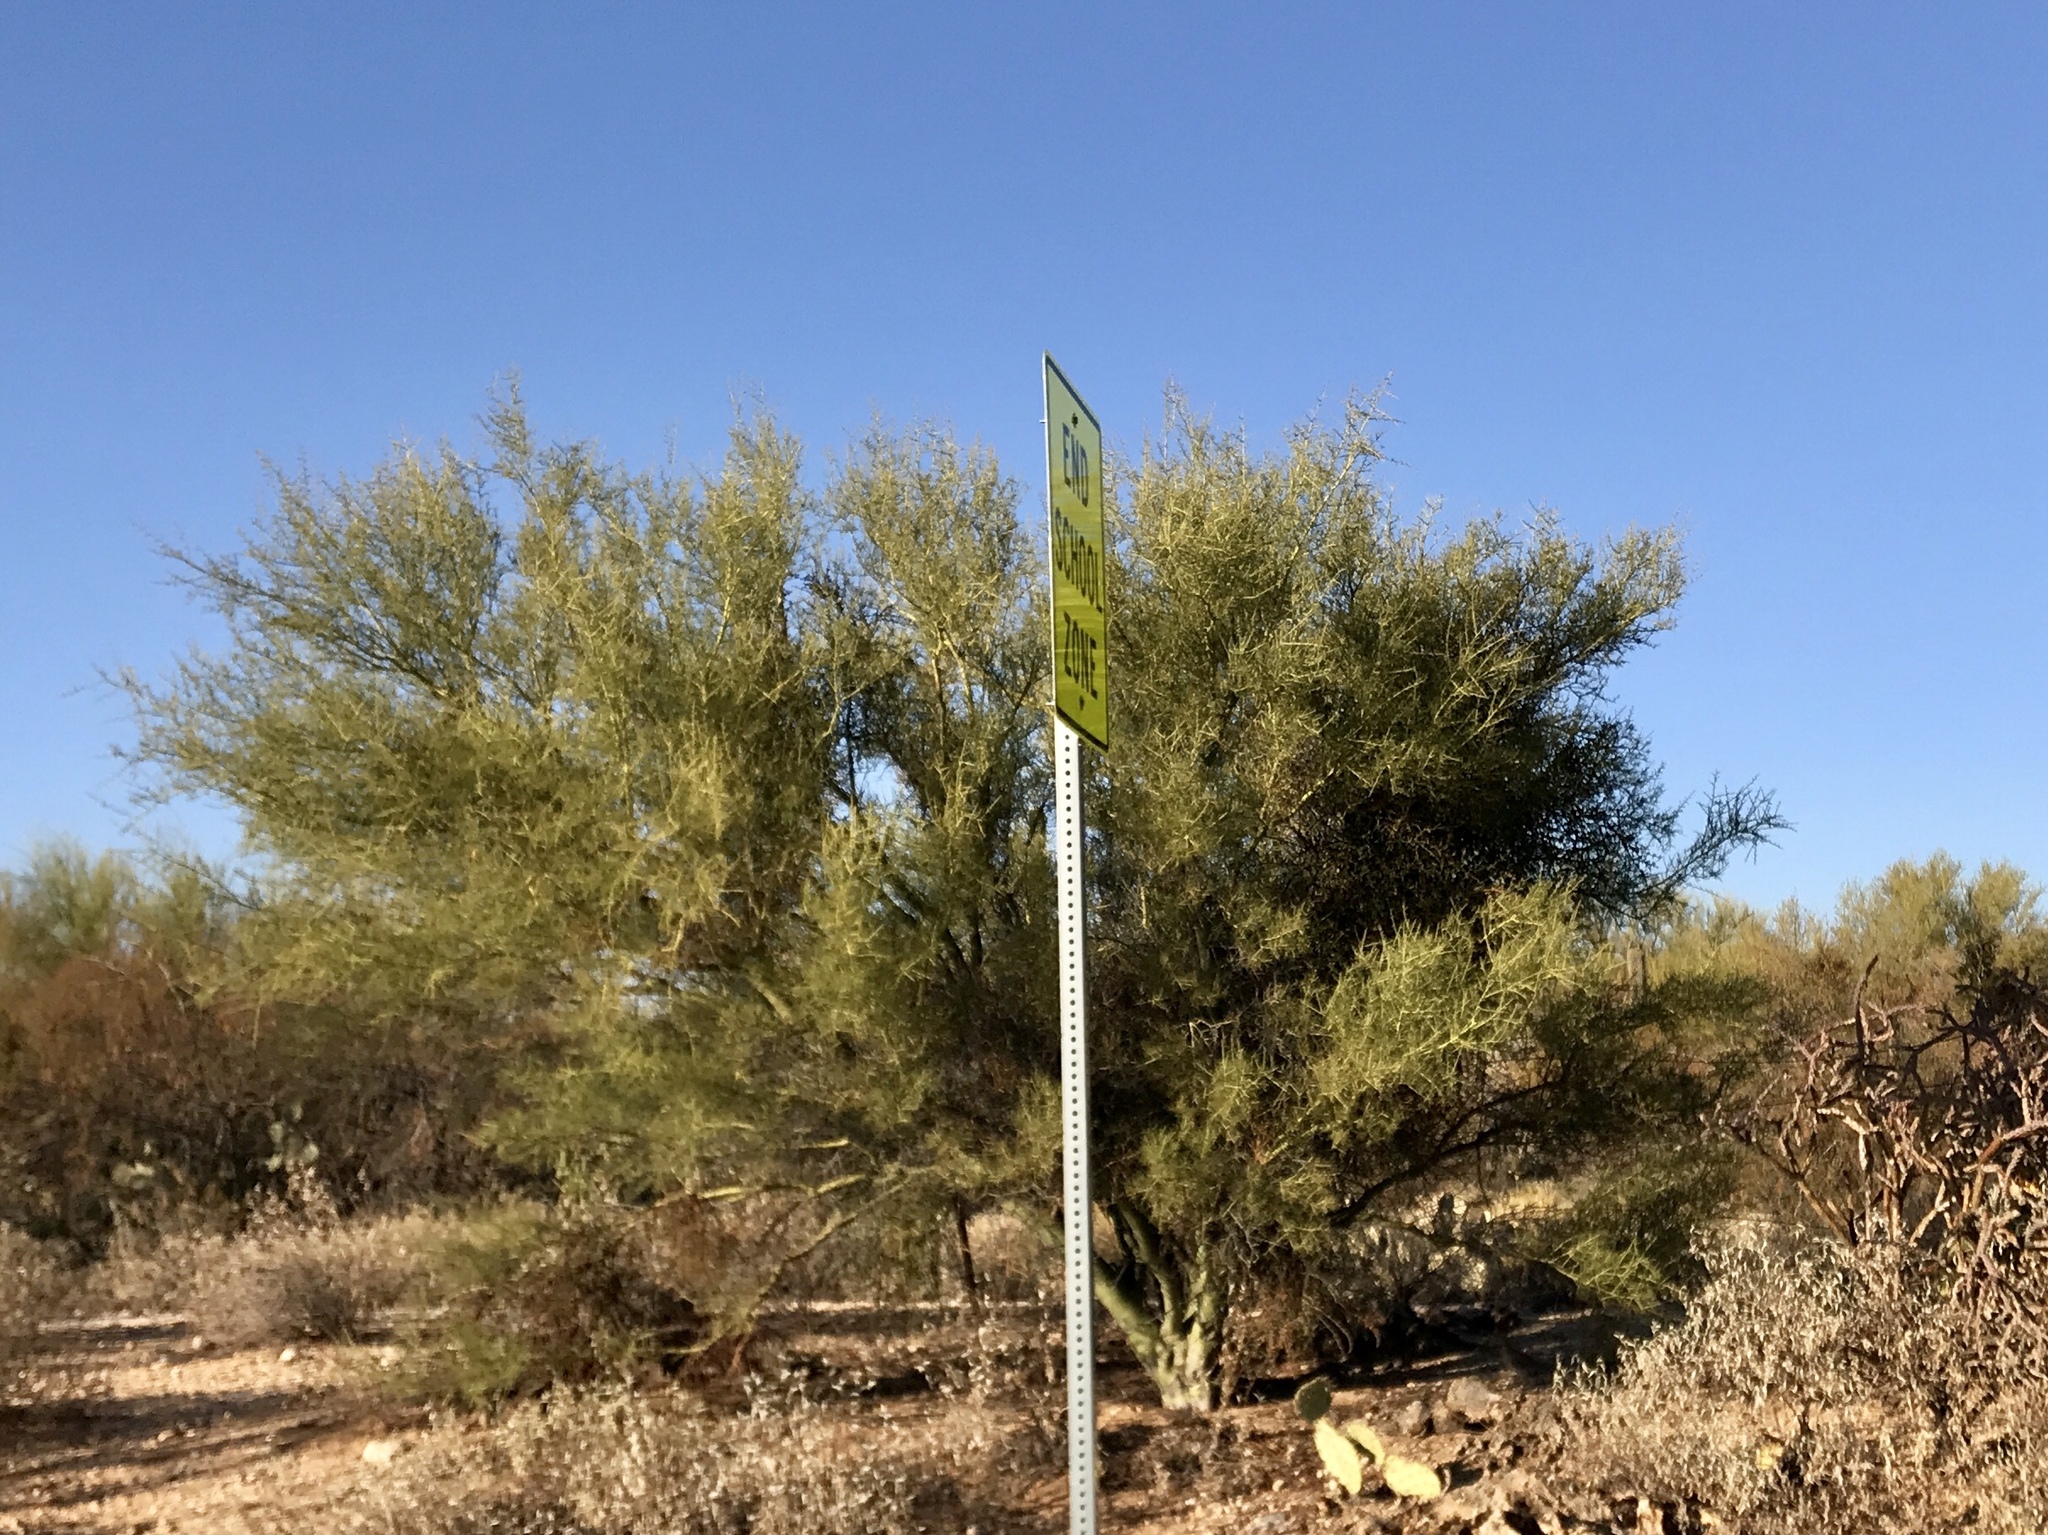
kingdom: Plantae
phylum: Tracheophyta
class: Magnoliopsida
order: Fabales
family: Fabaceae
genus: Parkinsonia
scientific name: Parkinsonia microphylla
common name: Yellow paloverde
